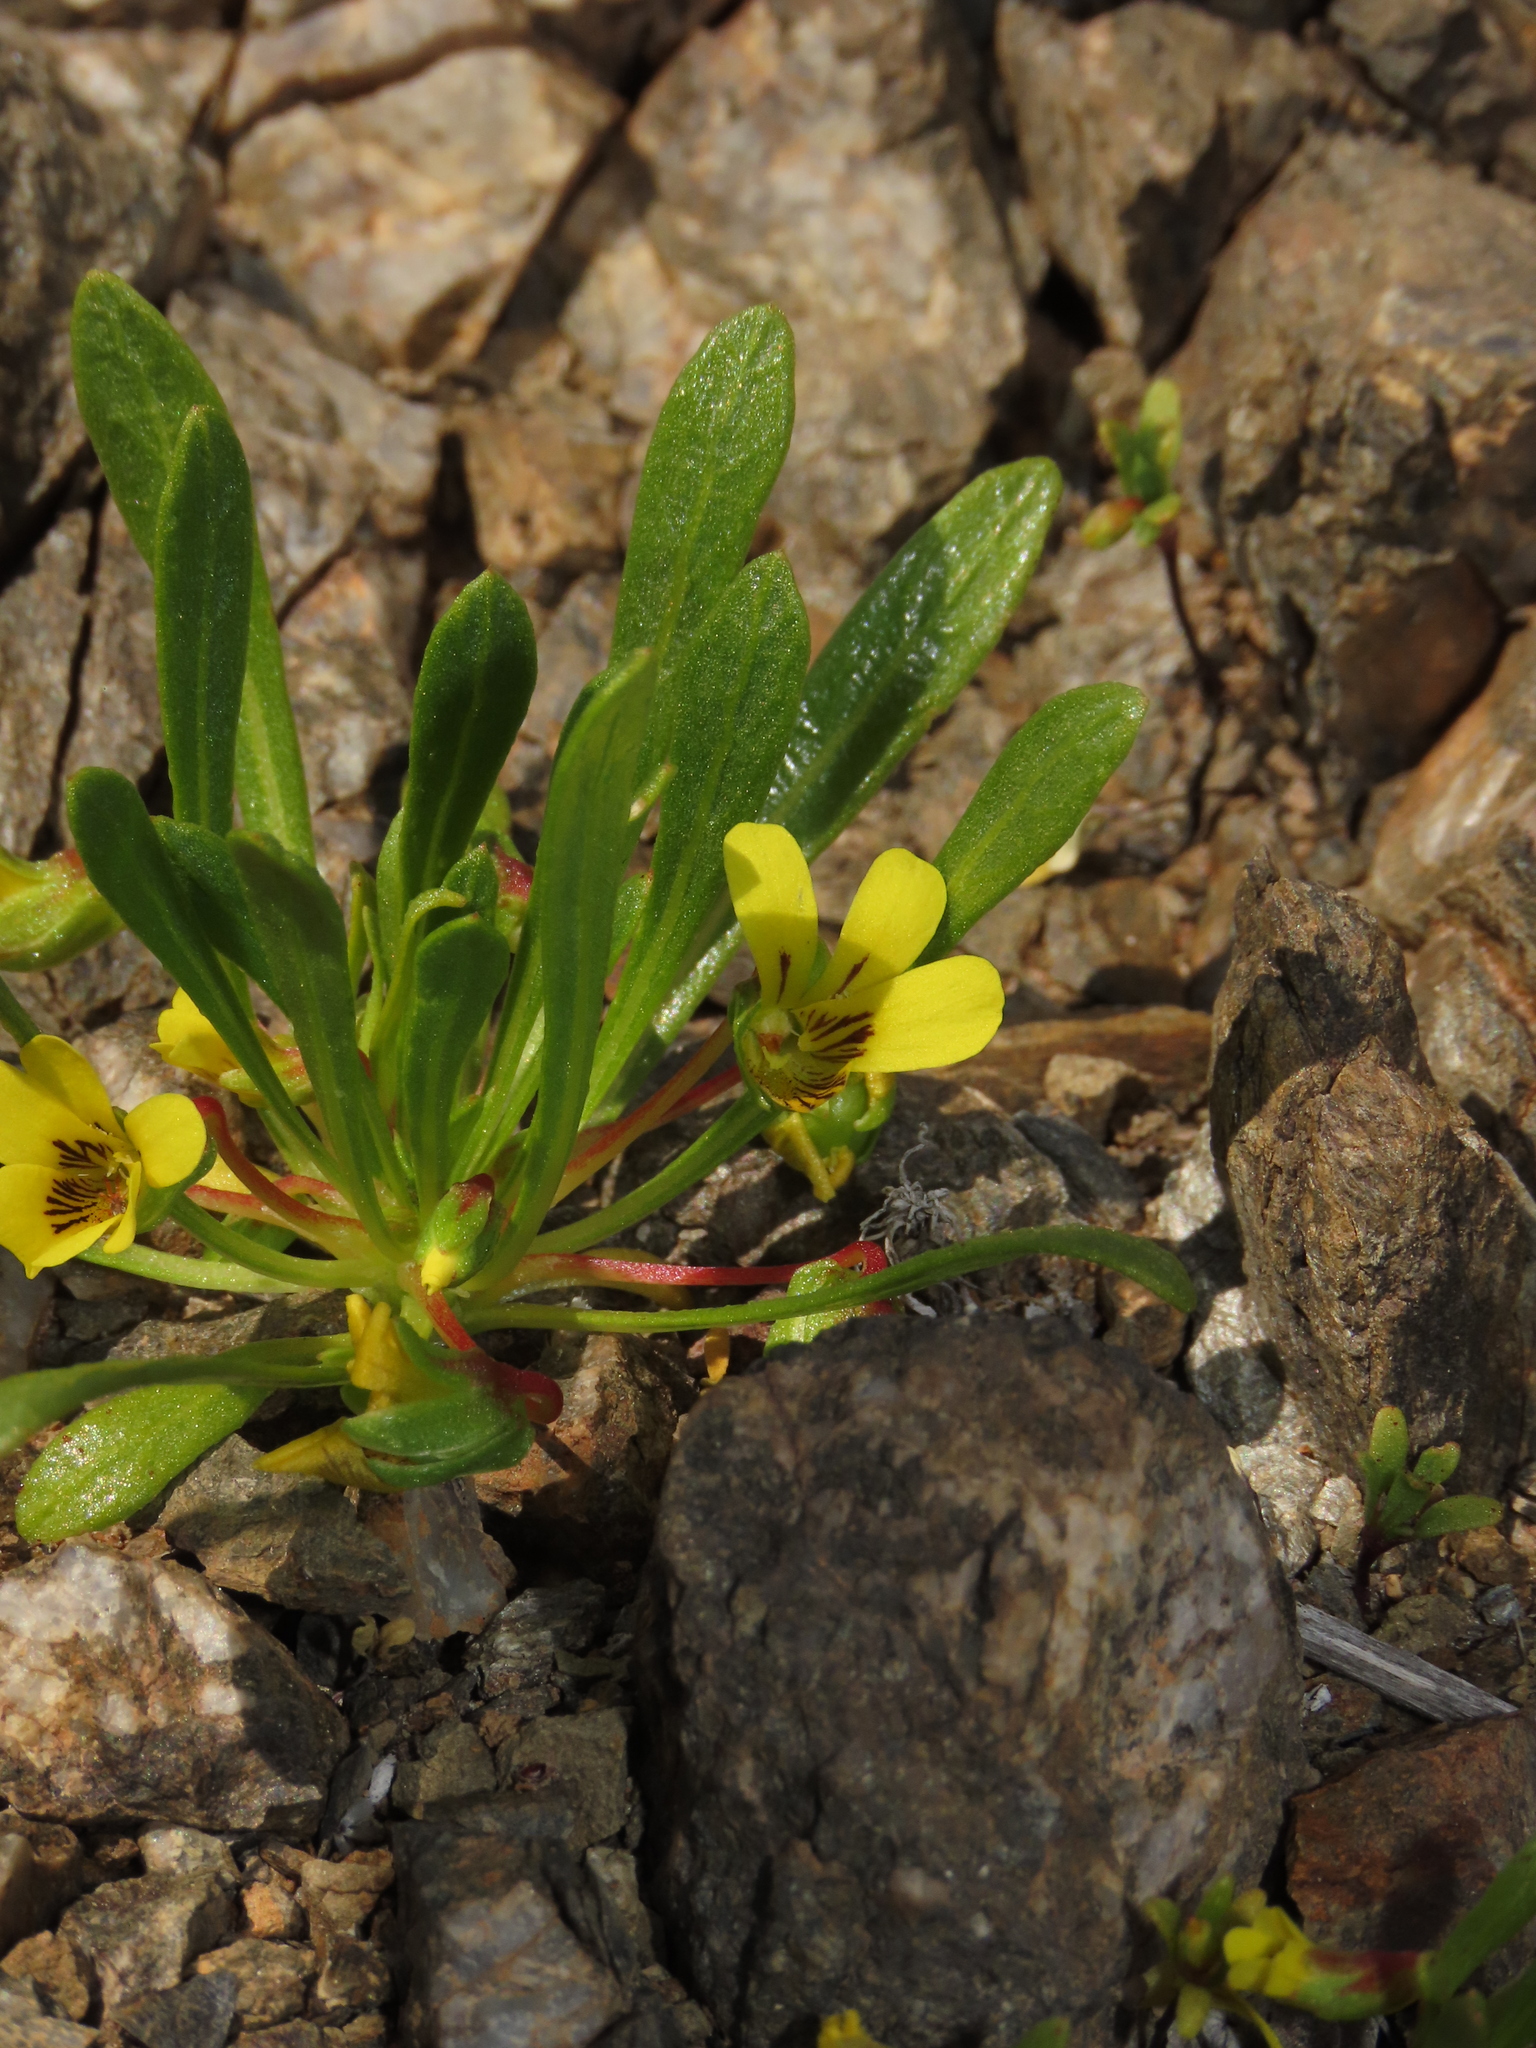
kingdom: Plantae
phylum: Tracheophyta
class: Magnoliopsida
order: Malpighiales
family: Violaceae
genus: Viola
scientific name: Viola pusilla
